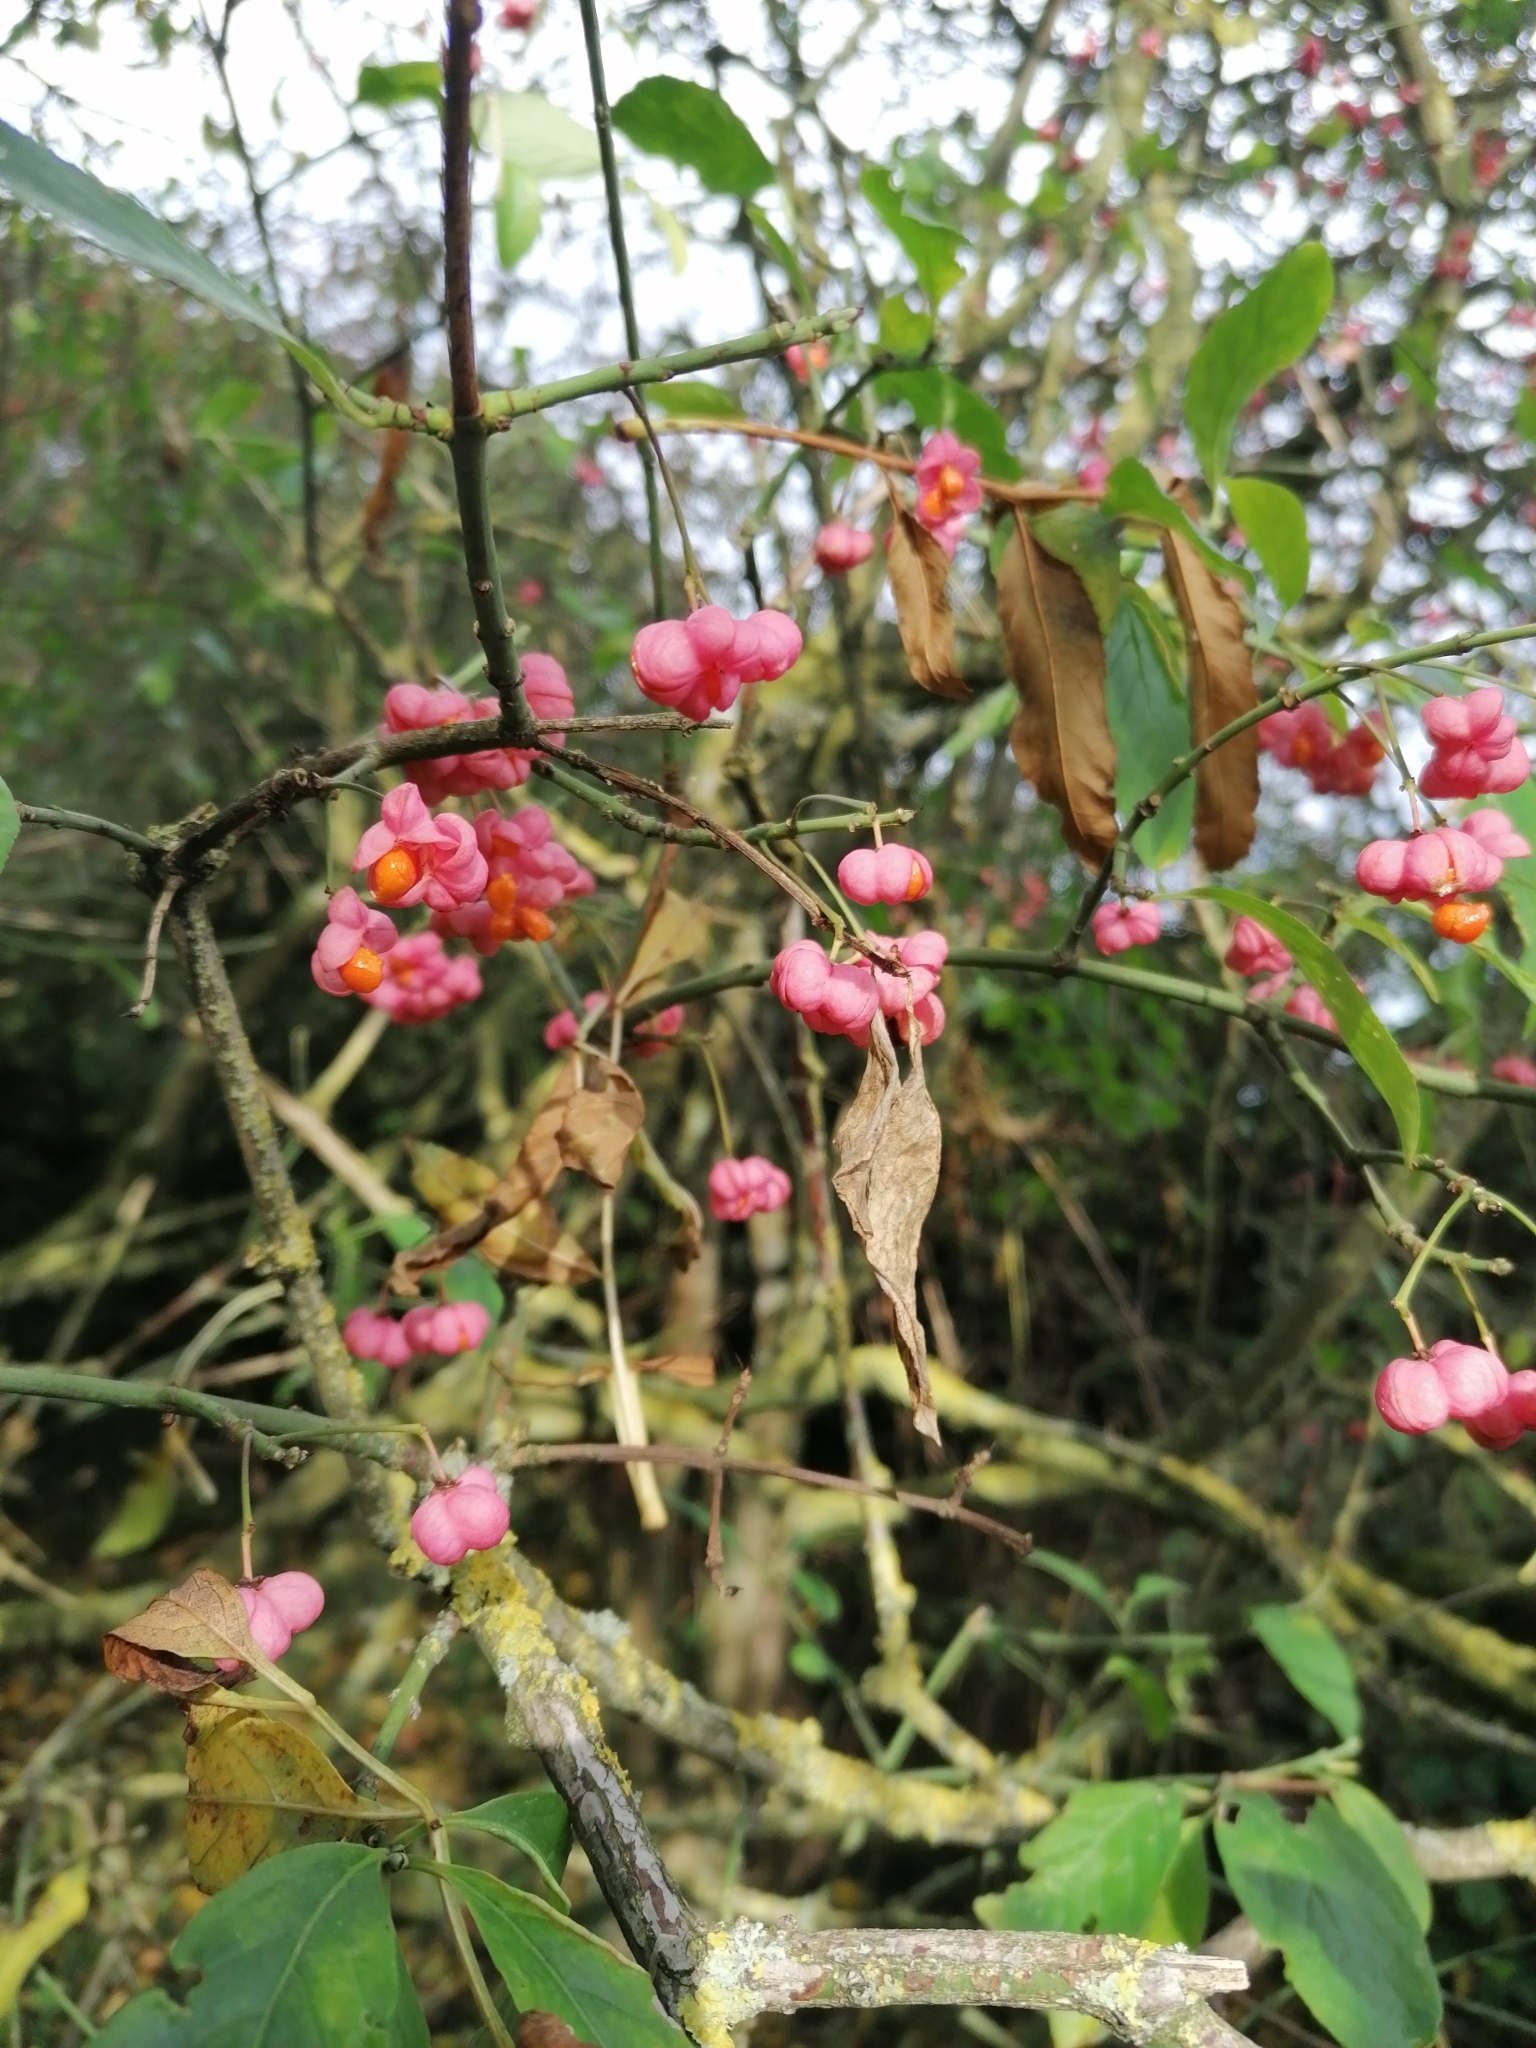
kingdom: Plantae
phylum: Tracheophyta
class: Magnoliopsida
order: Celastrales
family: Celastraceae
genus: Euonymus
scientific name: Euonymus europaeus
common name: Spindle
